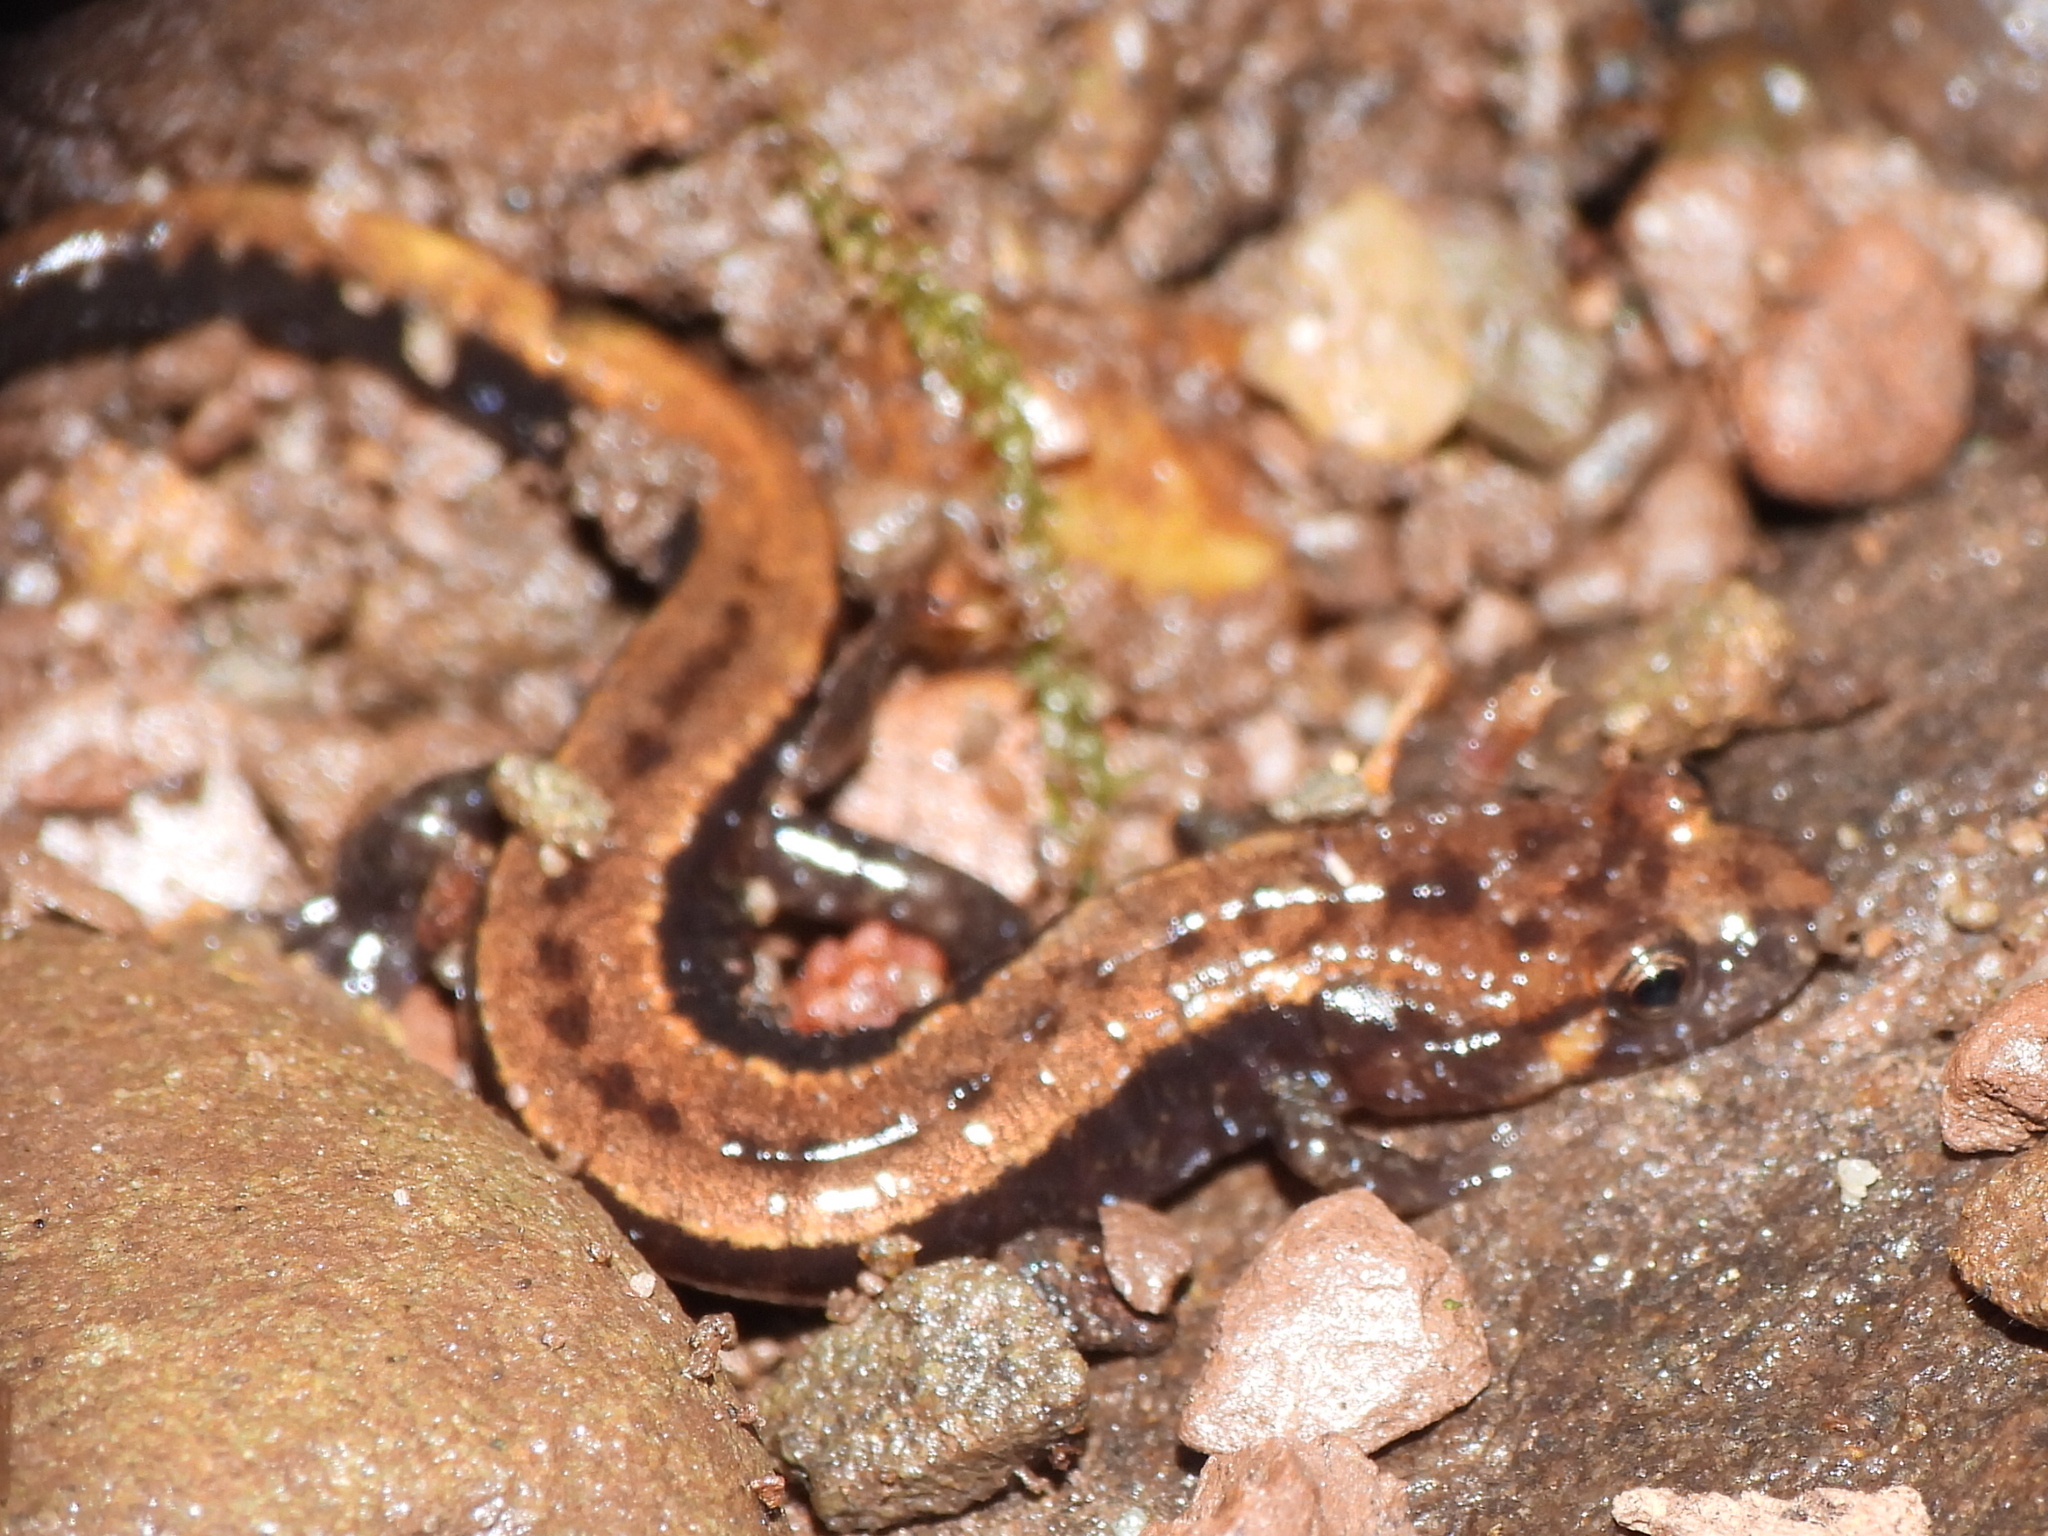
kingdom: Animalia
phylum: Chordata
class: Amphibia
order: Caudata
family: Plethodontidae
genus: Desmognathus
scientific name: Desmognathus ochrophaeus
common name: Allegheny mountain dusky salamander
